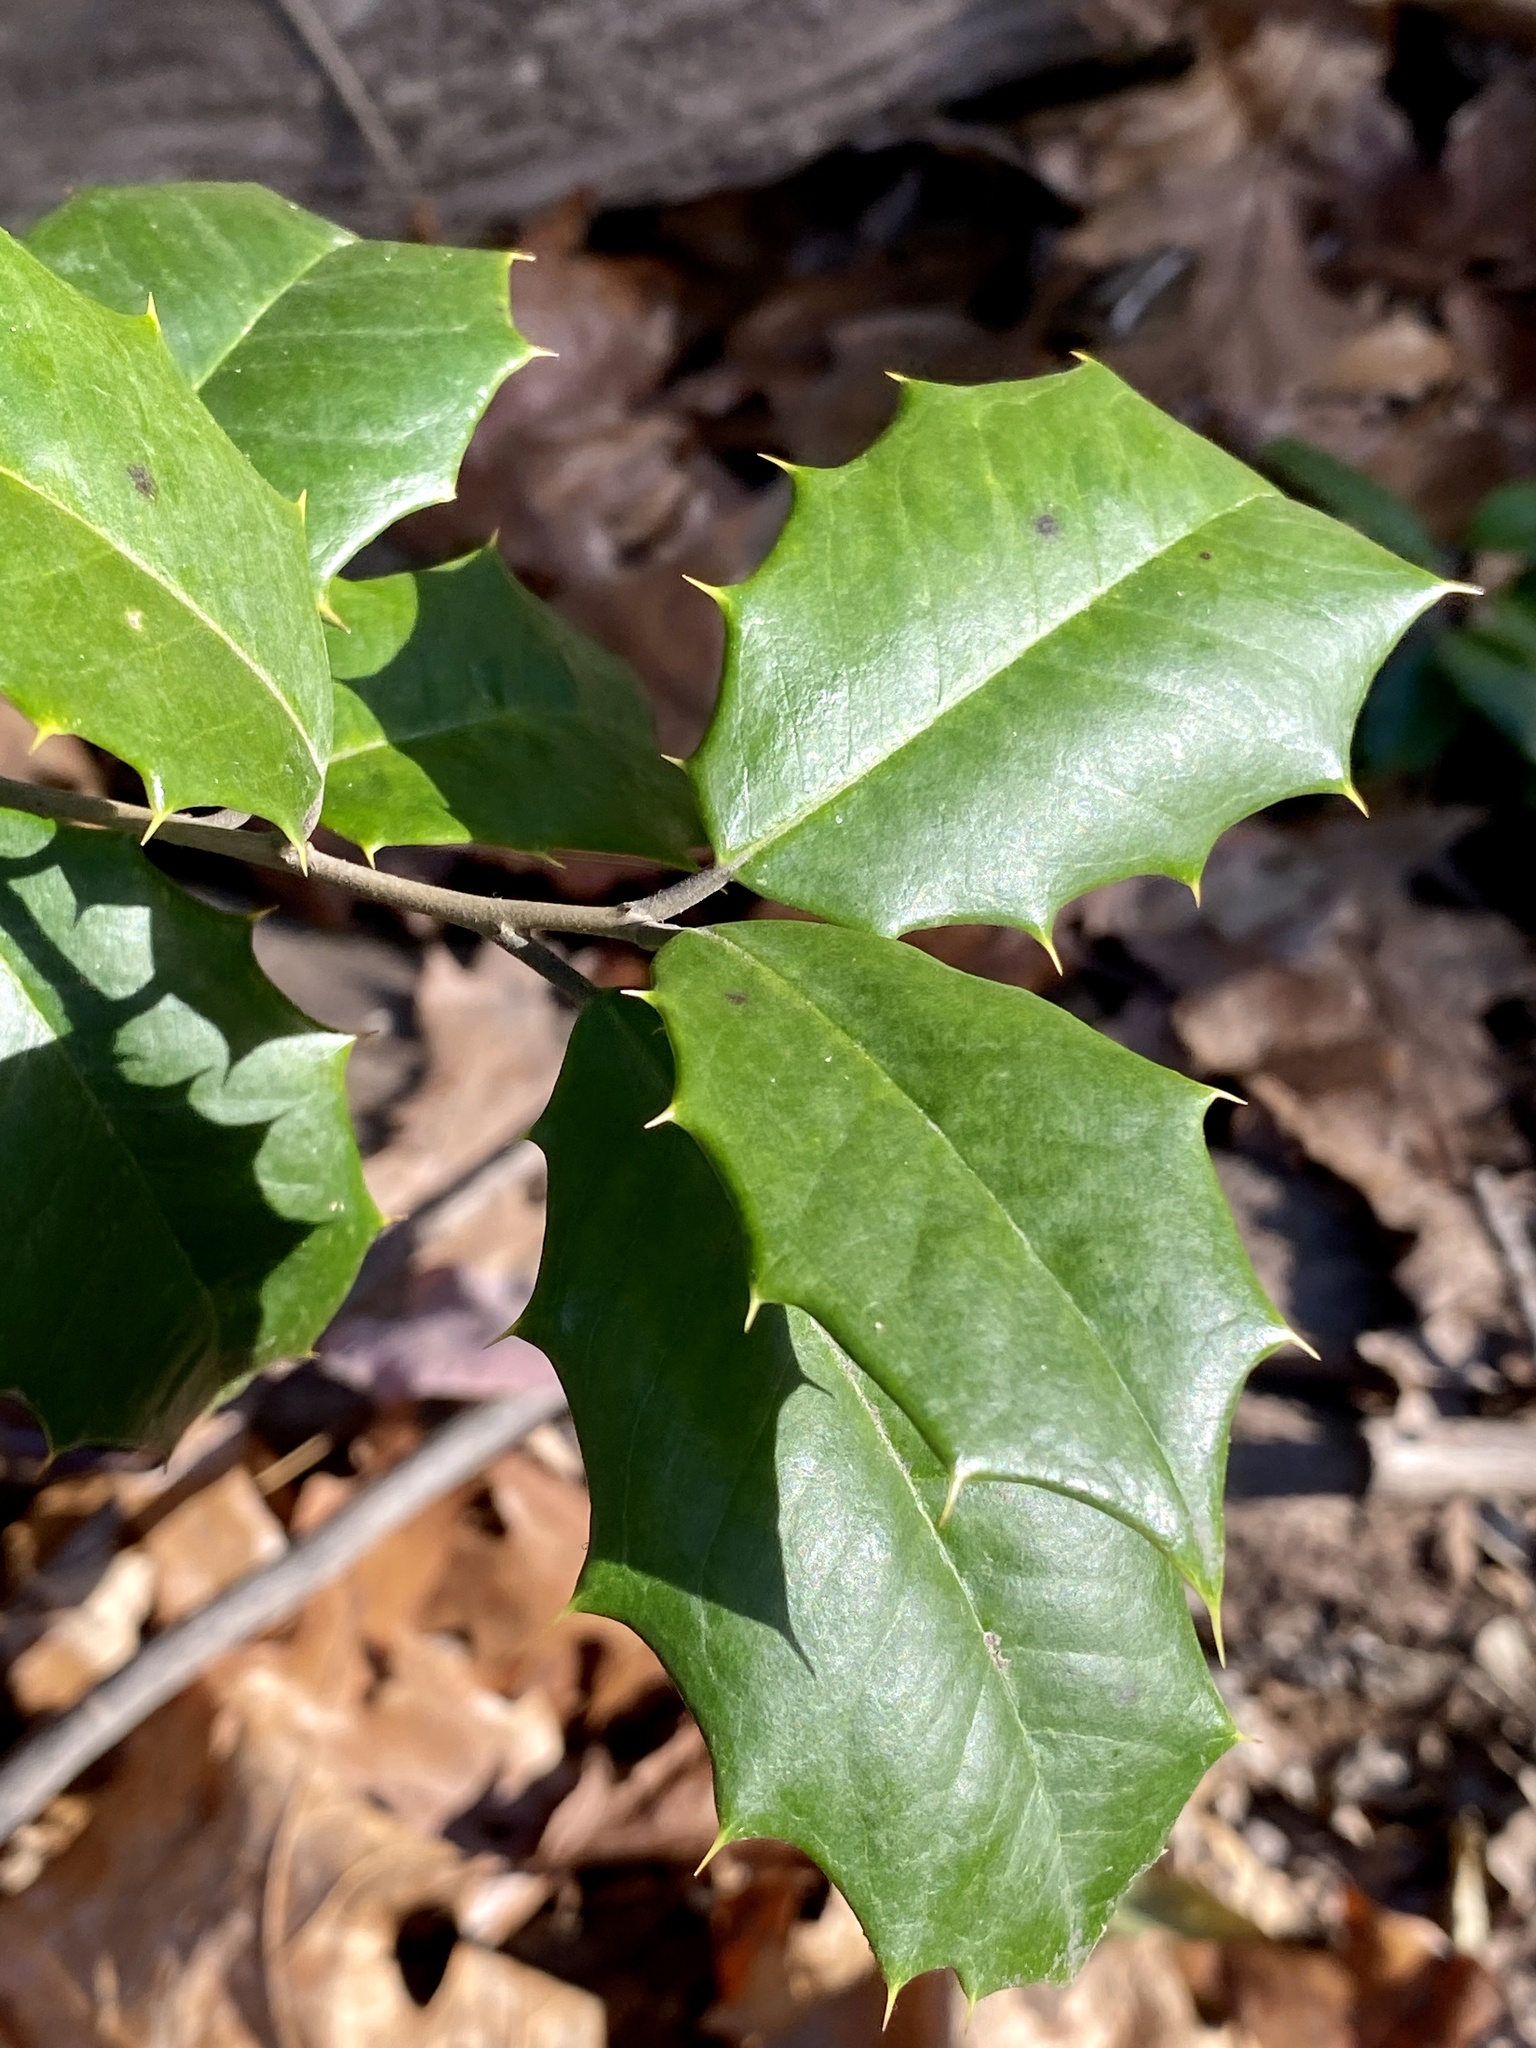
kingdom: Plantae
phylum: Tracheophyta
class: Magnoliopsida
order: Aquifoliales
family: Aquifoliaceae
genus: Ilex
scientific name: Ilex opaca
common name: American holly
